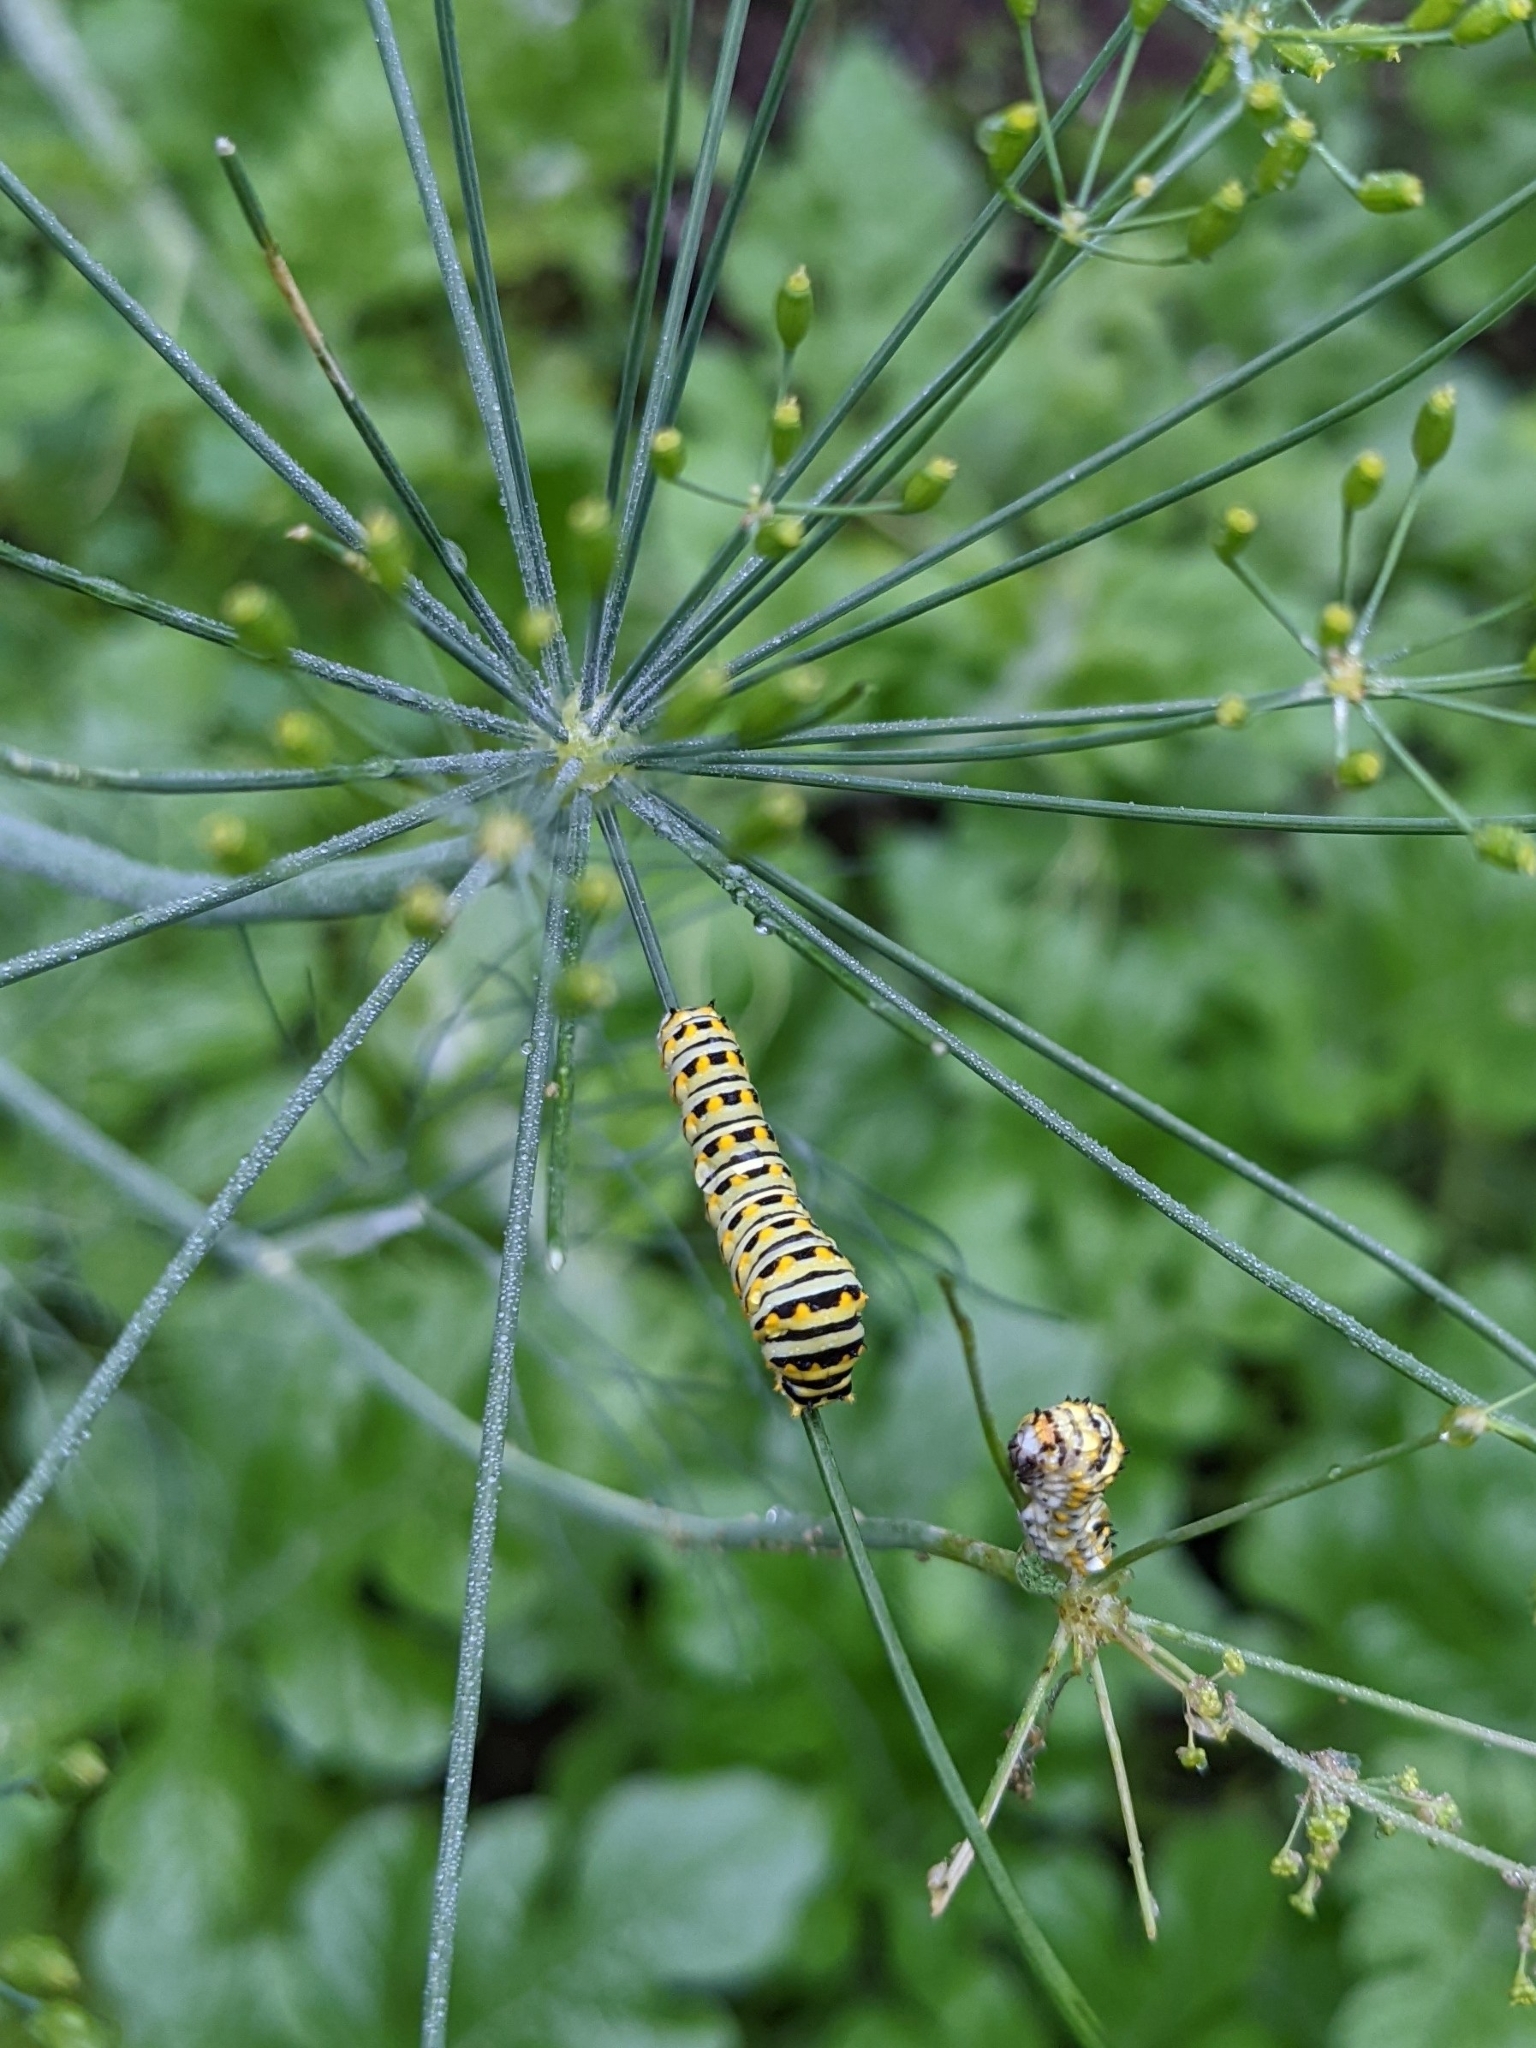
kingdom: Animalia
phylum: Arthropoda
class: Insecta
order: Lepidoptera
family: Papilionidae
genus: Papilio
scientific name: Papilio polyxenes
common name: Black swallowtail
